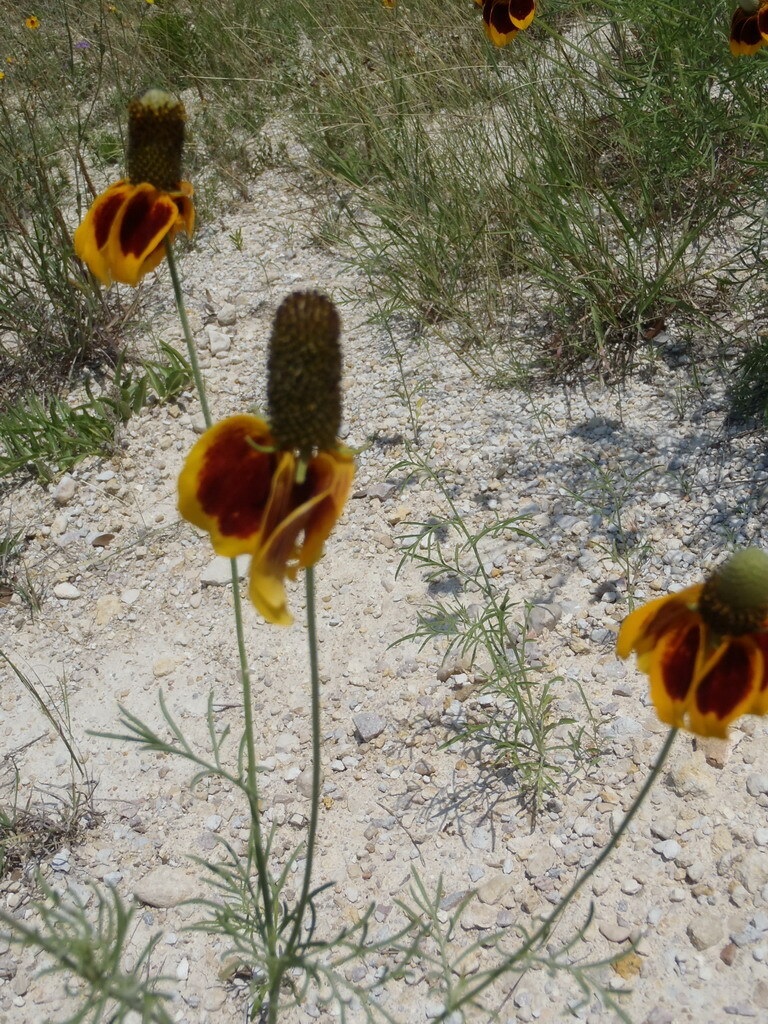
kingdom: Plantae
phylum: Tracheophyta
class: Magnoliopsida
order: Asterales
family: Asteraceae
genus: Ratibida
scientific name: Ratibida columnifera
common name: Prairie coneflower
